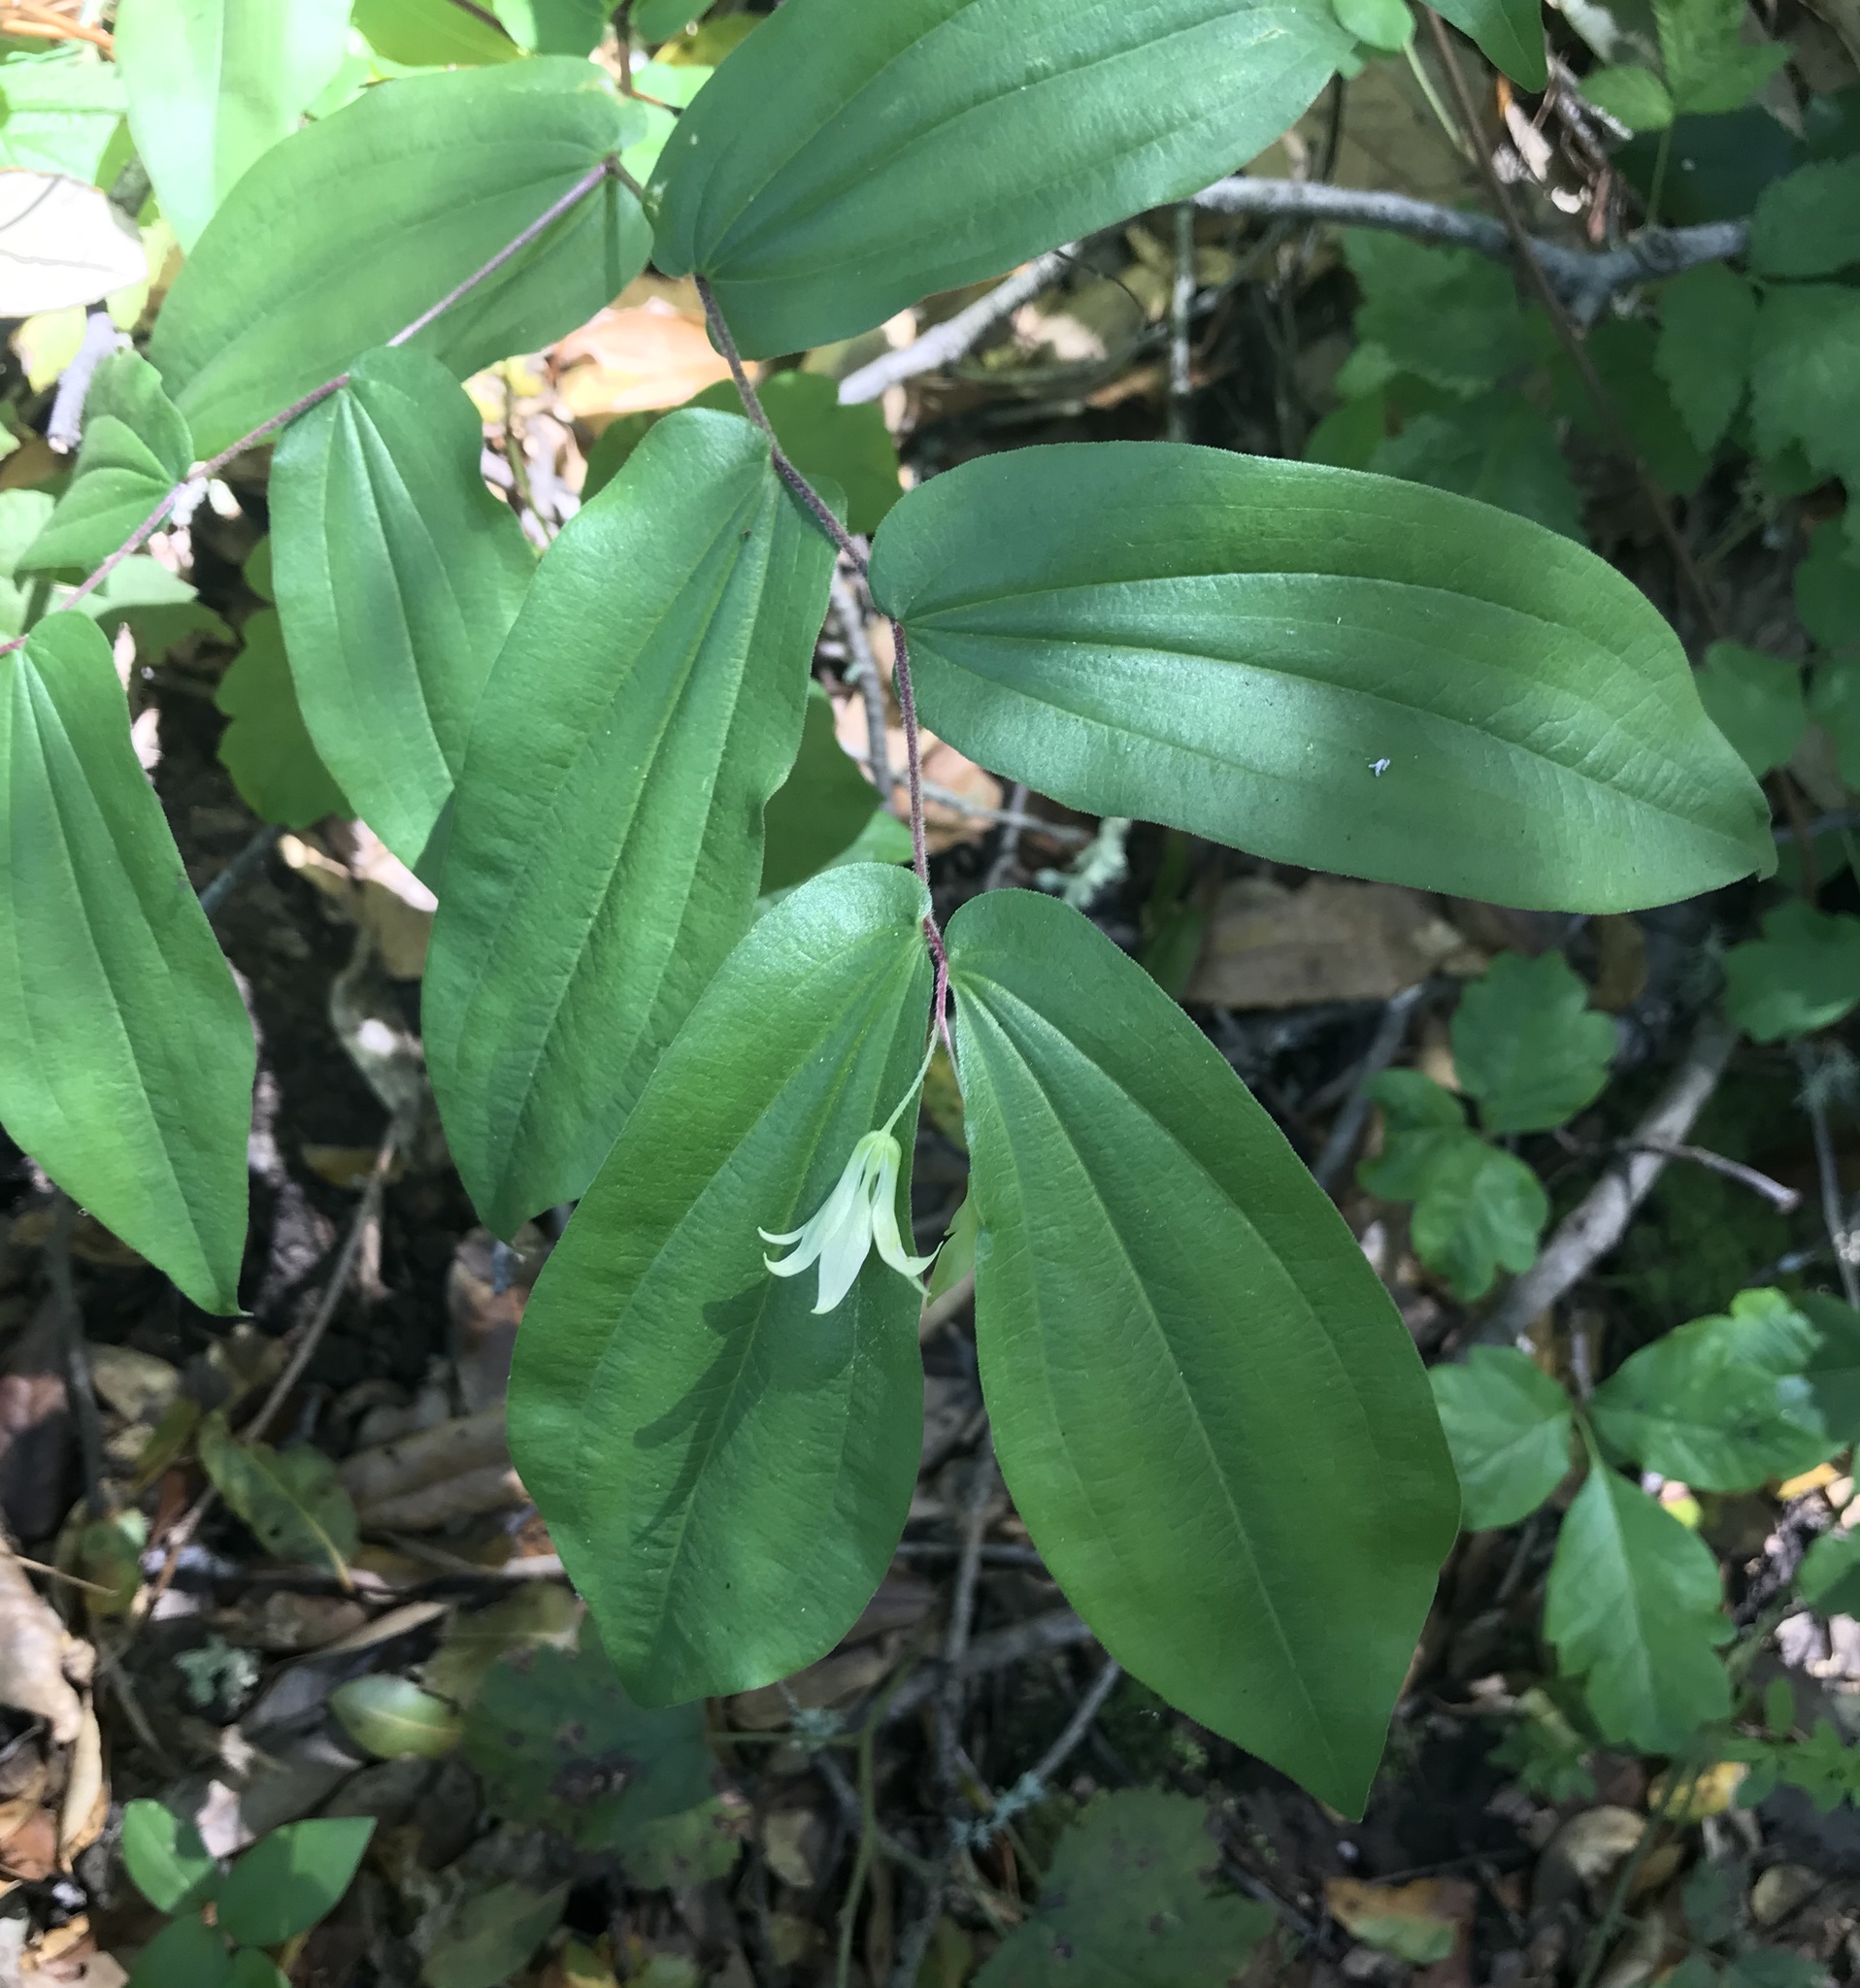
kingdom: Plantae
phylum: Tracheophyta
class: Liliopsida
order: Liliales
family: Liliaceae
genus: Prosartes
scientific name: Prosartes hookeri
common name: Fairy-bells
